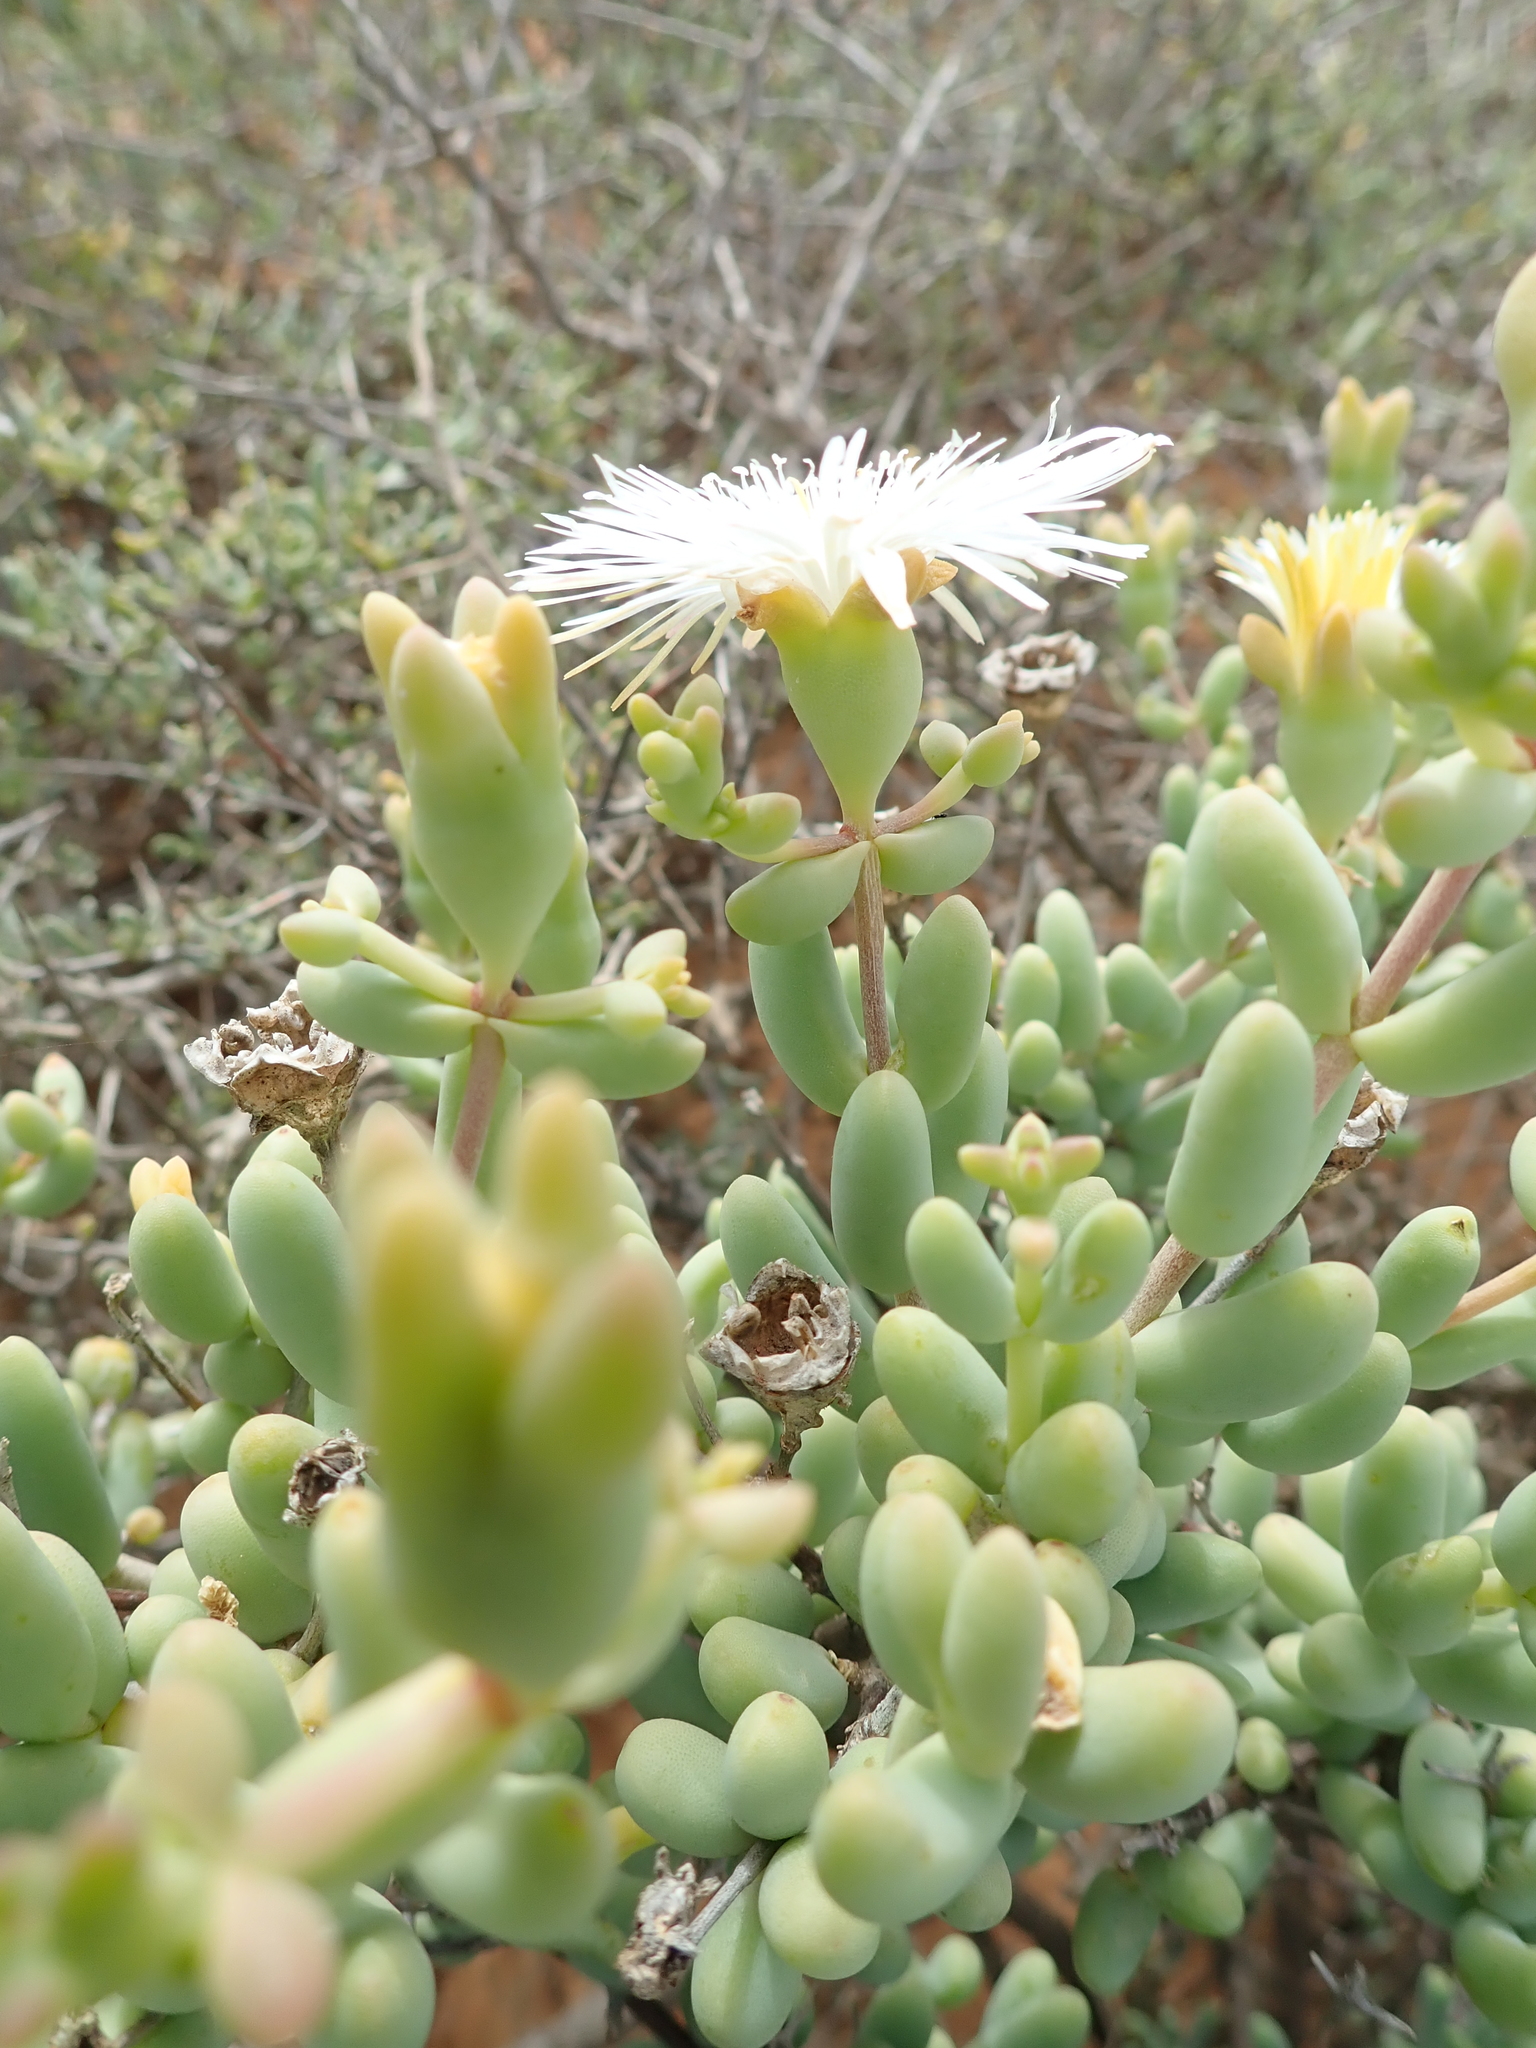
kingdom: Plantae
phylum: Tracheophyta
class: Magnoliopsida
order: Caryophyllales
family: Aizoaceae
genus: Mesembryanthemum
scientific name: Mesembryanthemum brevicarpum
